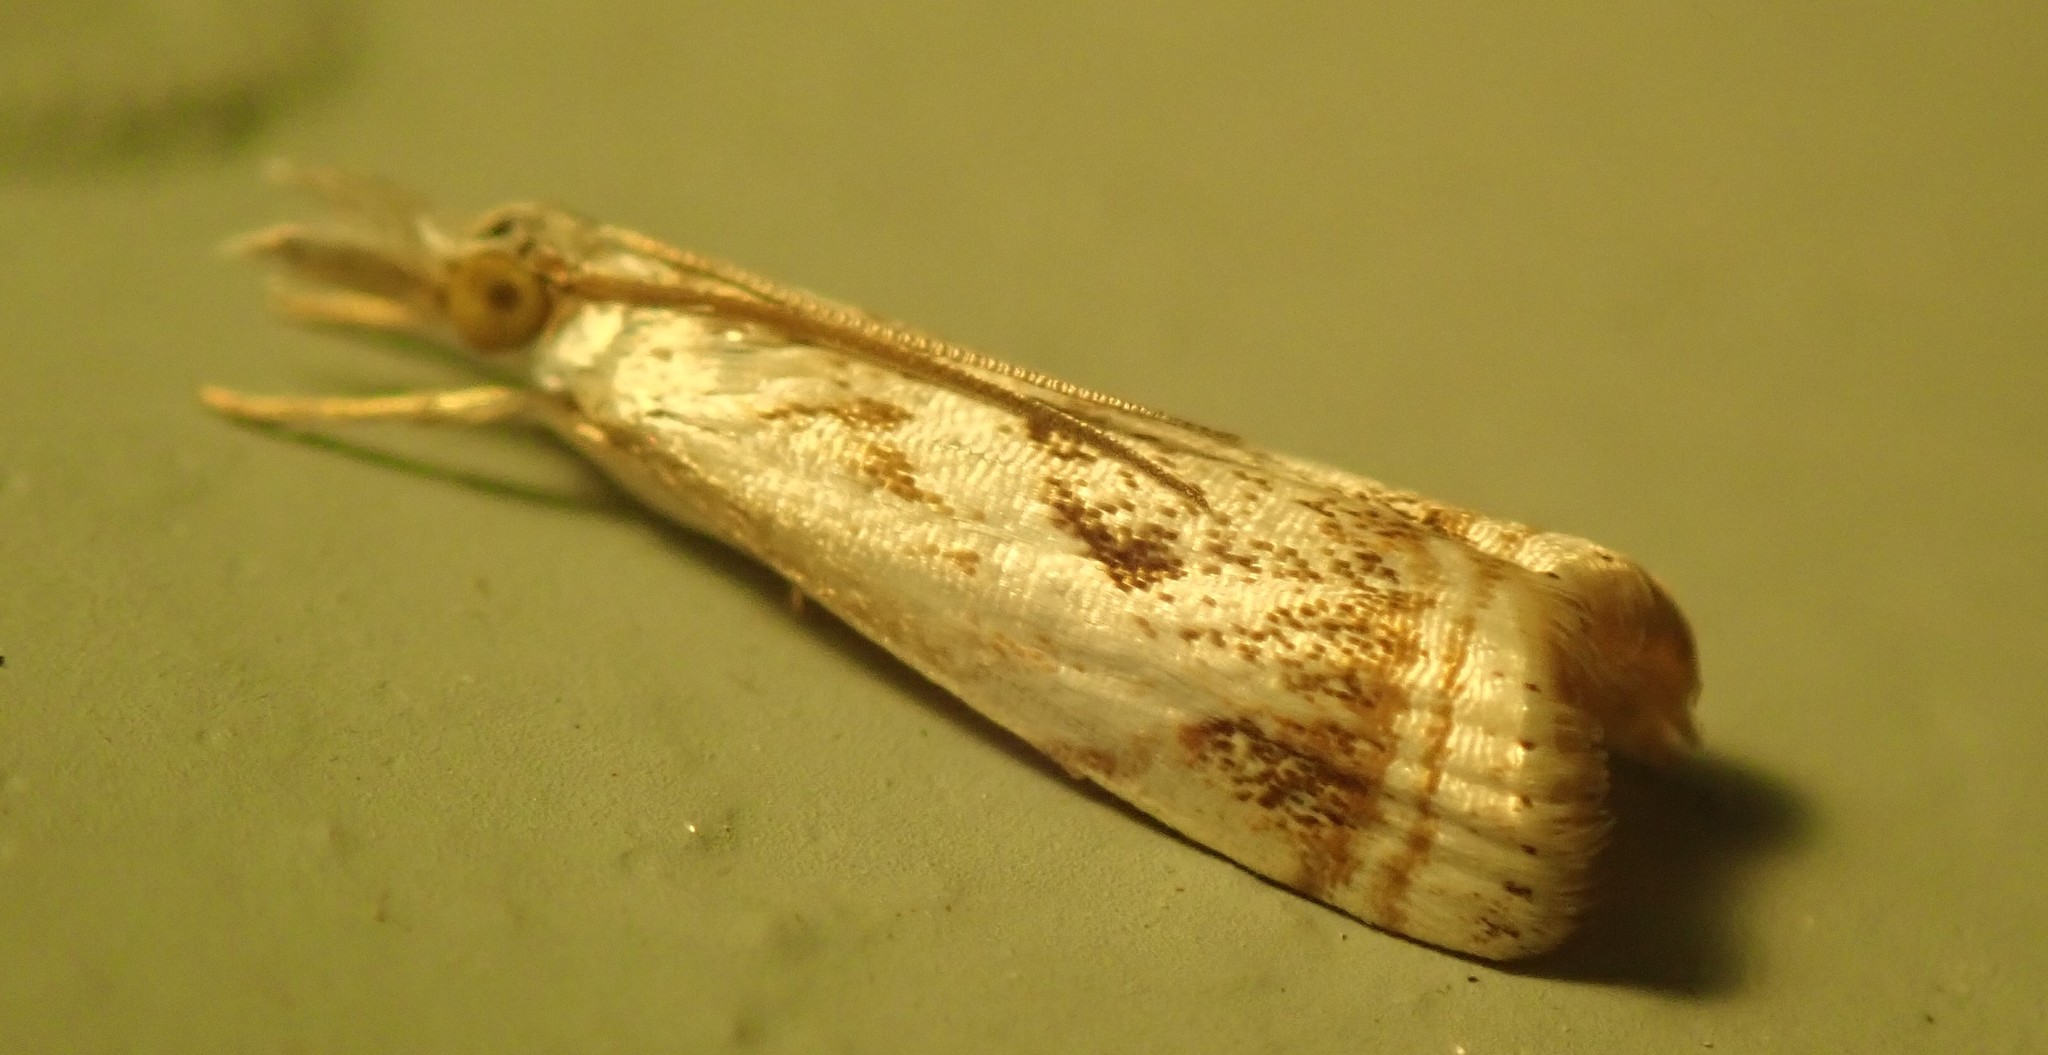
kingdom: Animalia
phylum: Arthropoda
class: Insecta
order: Lepidoptera
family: Crambidae
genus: Microcrambus
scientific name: Microcrambus elegans
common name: Elegant grass-veneer
